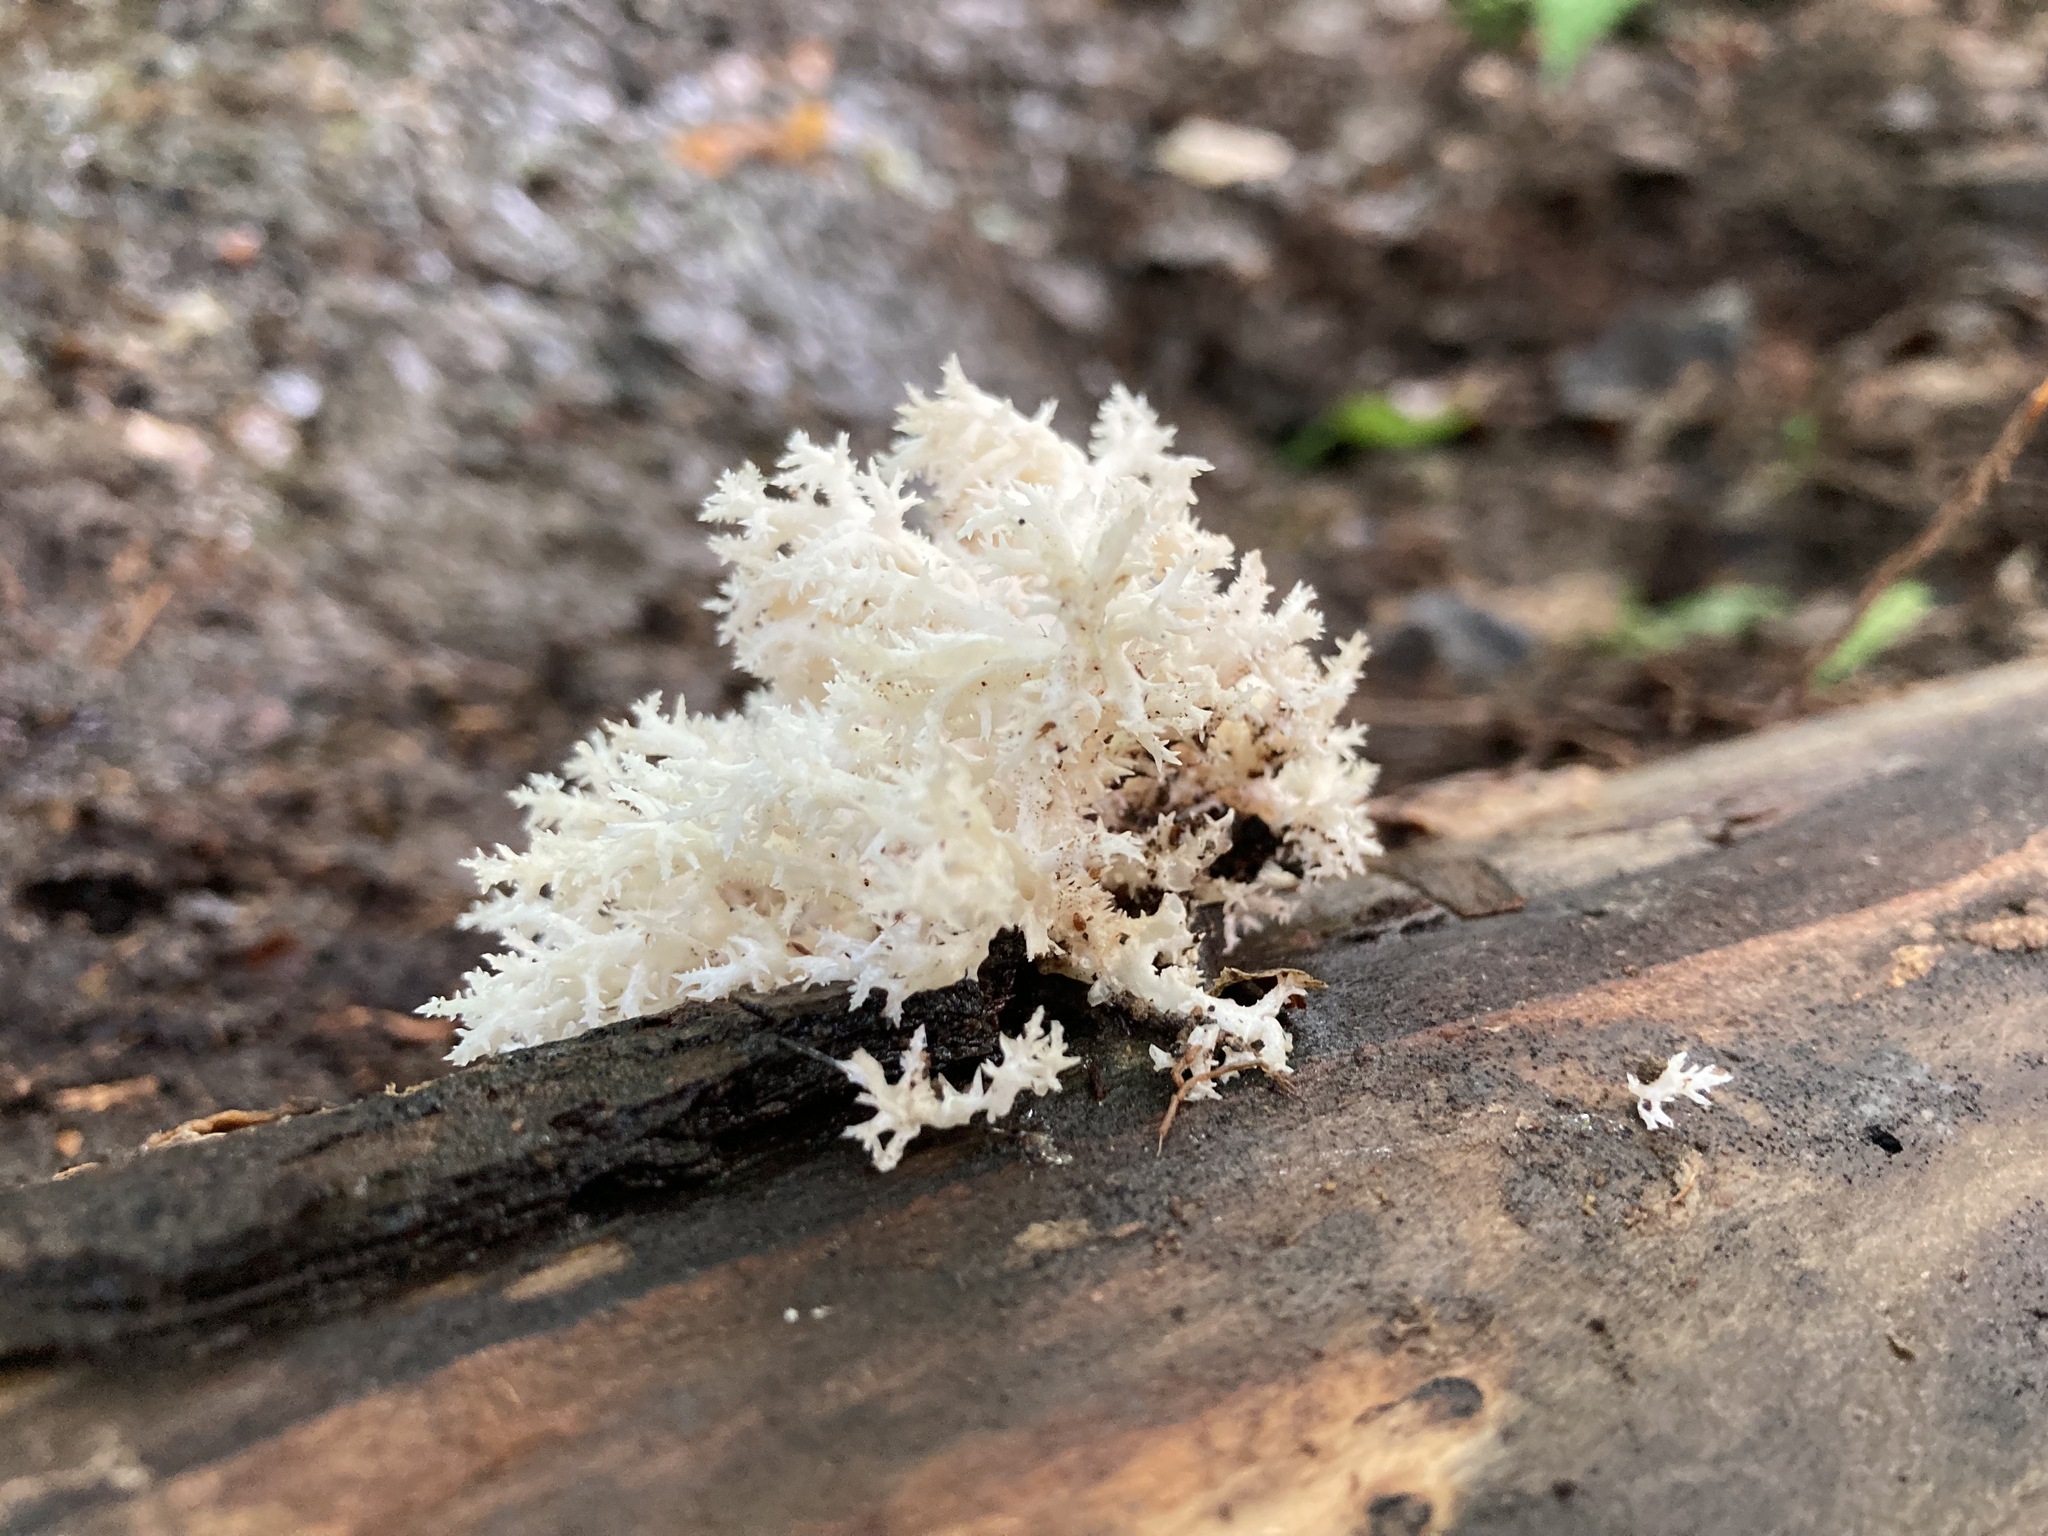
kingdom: Fungi
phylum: Basidiomycota
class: Agaricomycetes
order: Russulales
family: Hericiaceae
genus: Hericium
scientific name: Hericium coralloides
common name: Coral tooth
